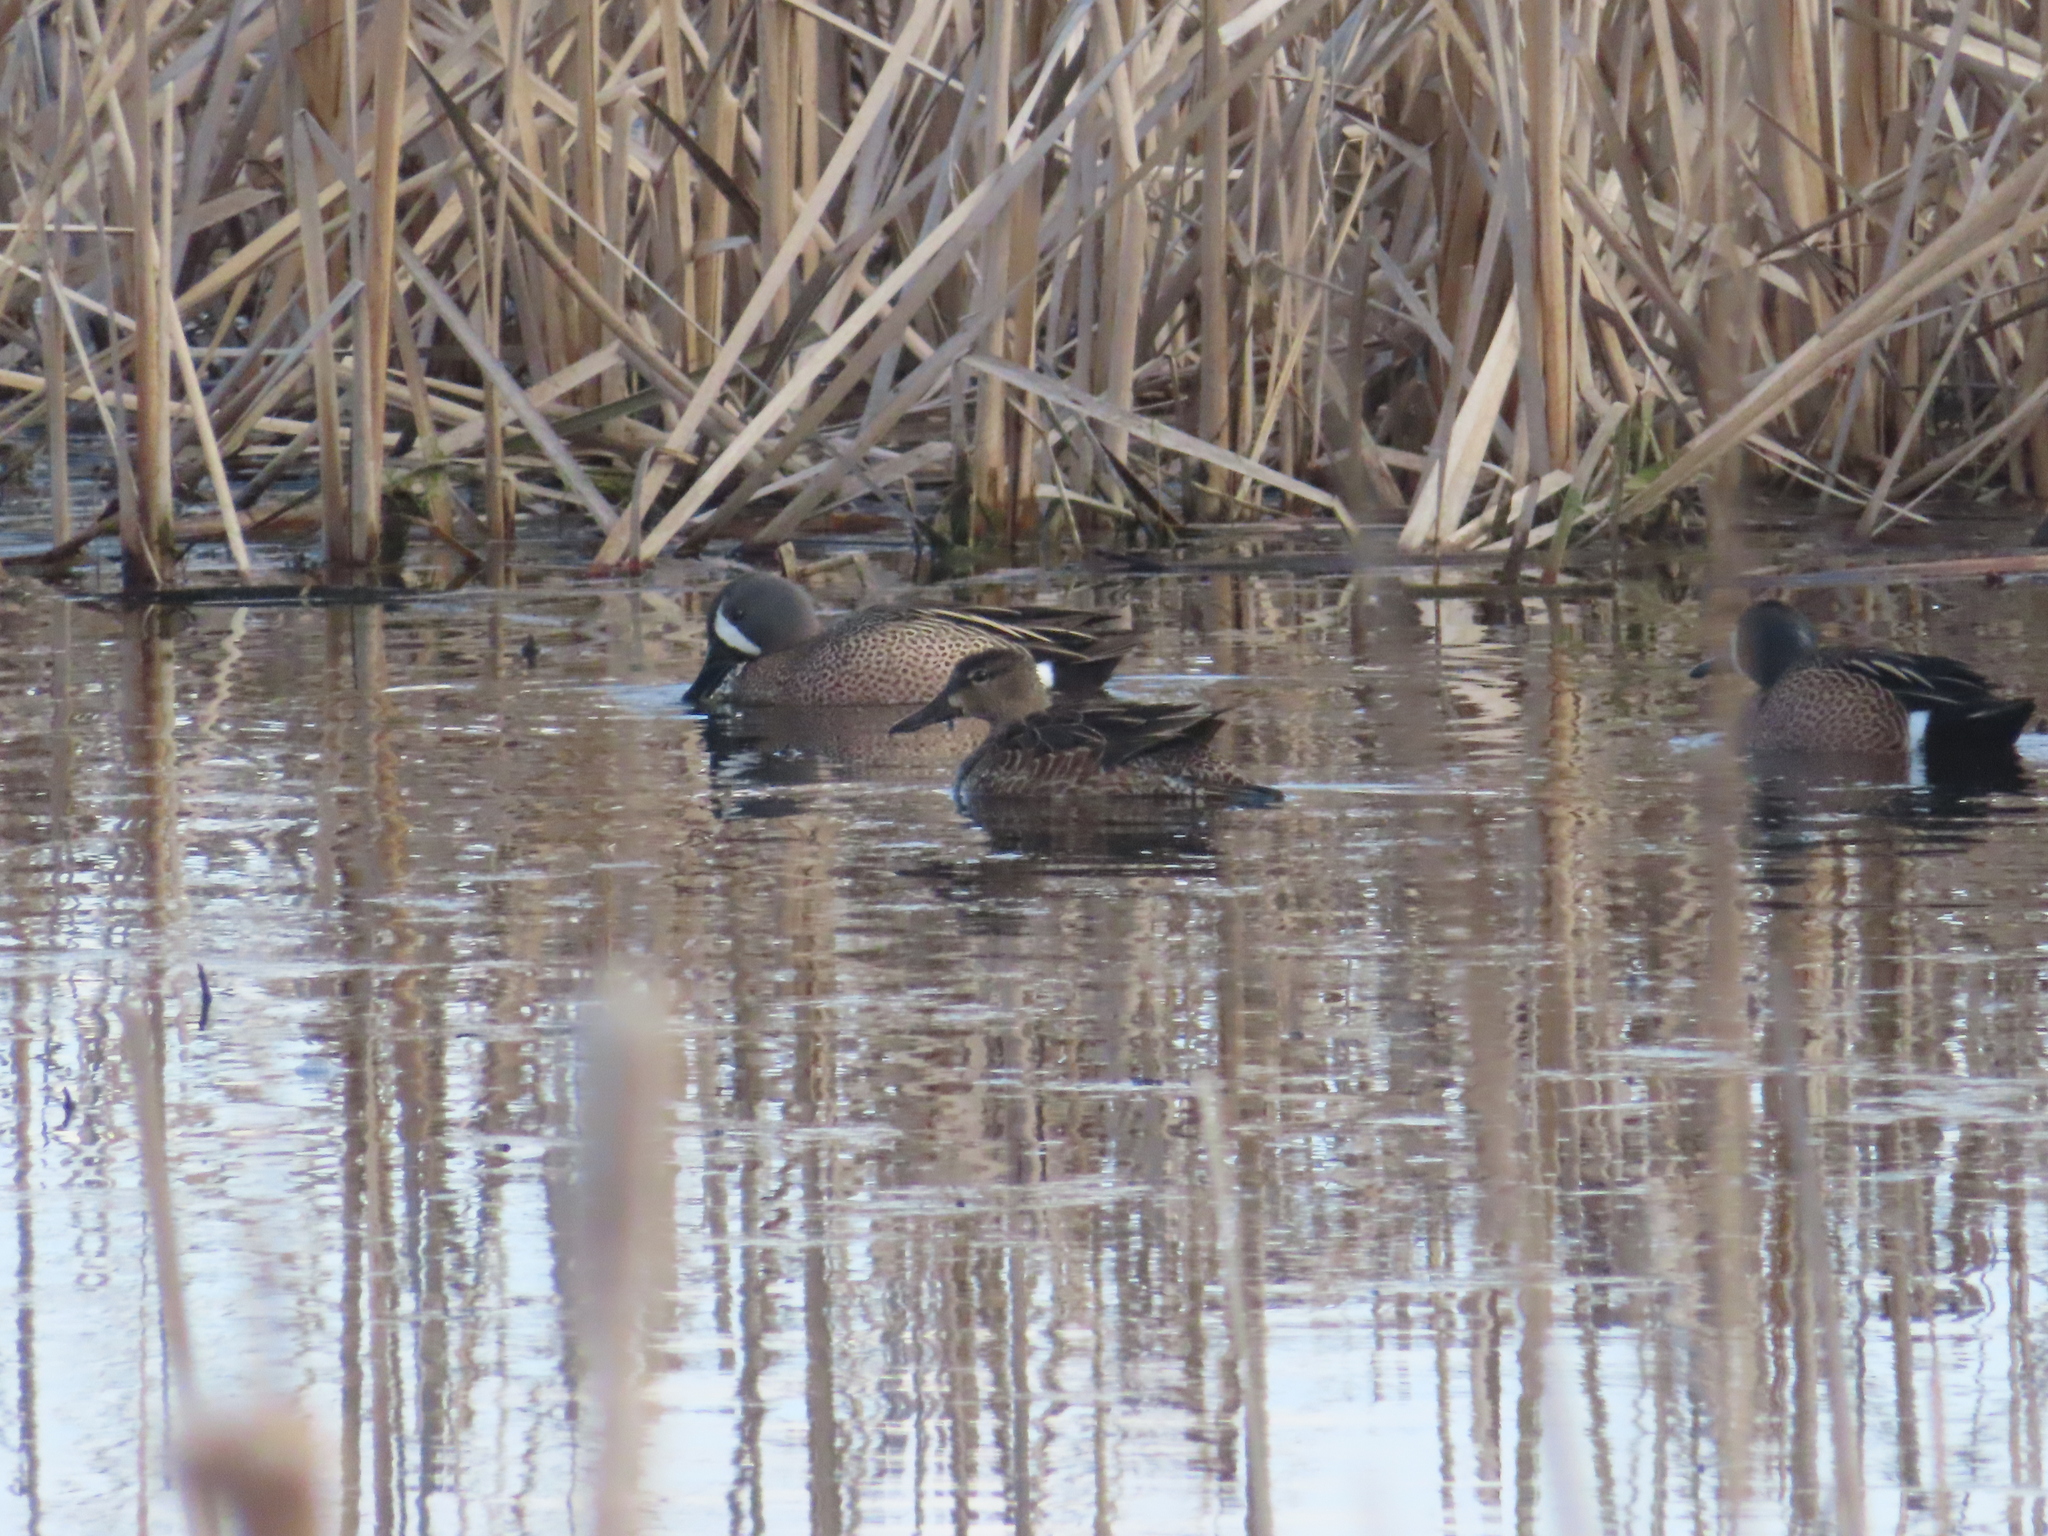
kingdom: Animalia
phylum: Chordata
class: Aves
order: Anseriformes
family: Anatidae
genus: Spatula
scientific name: Spatula discors
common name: Blue-winged teal
